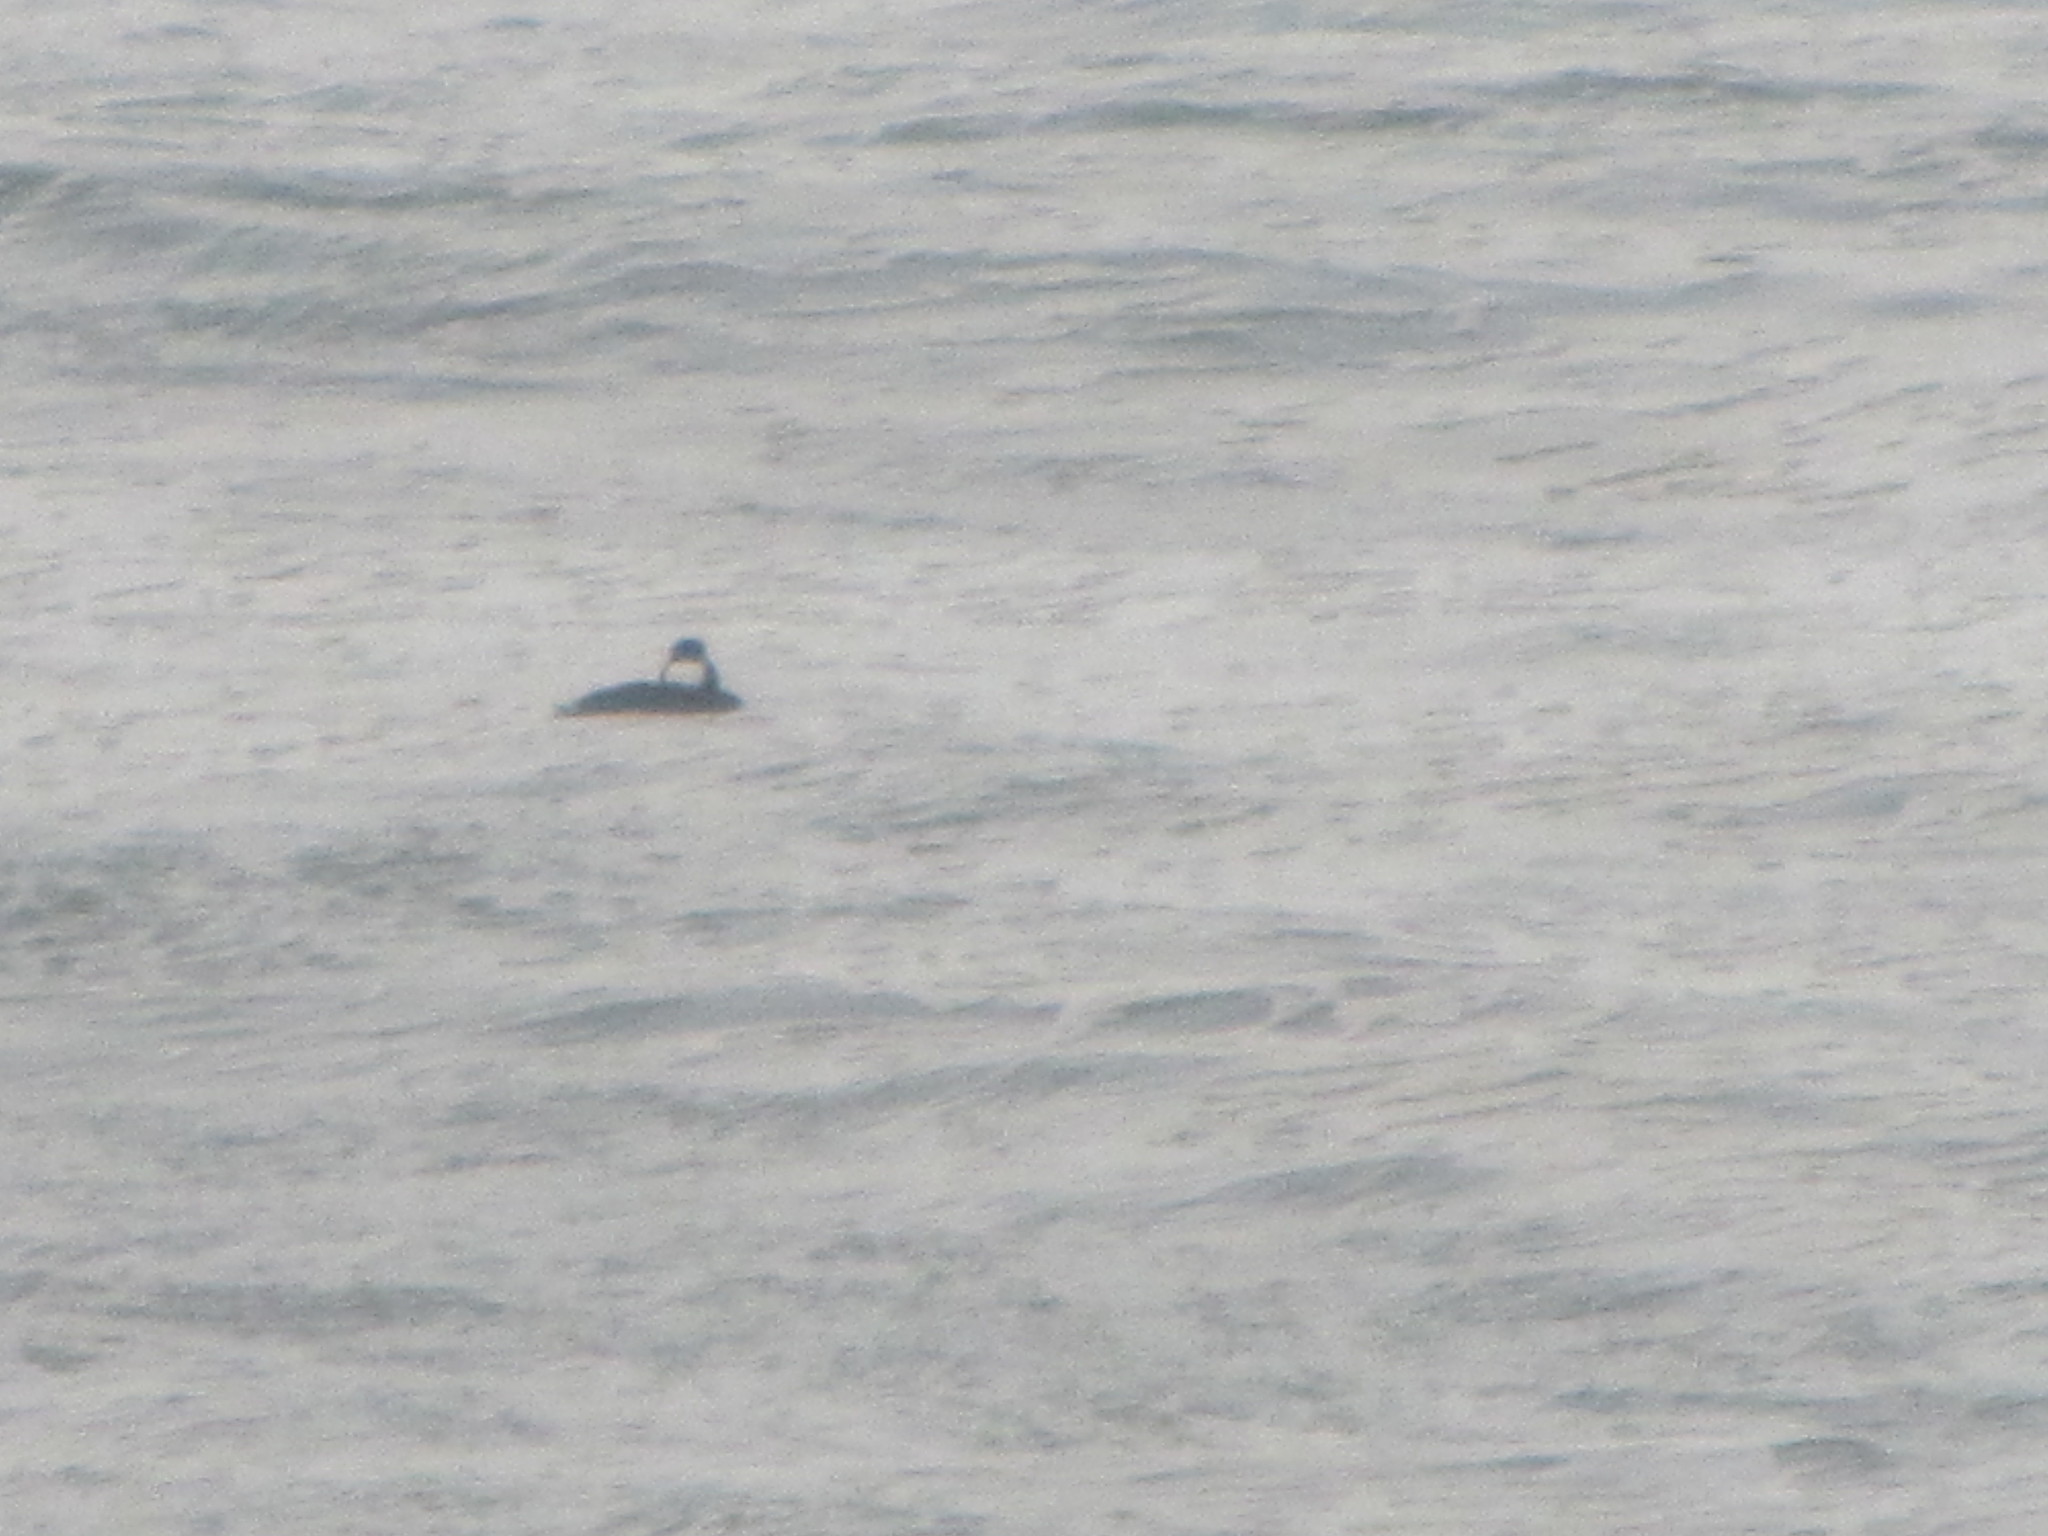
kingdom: Animalia
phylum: Chordata
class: Aves
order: Anseriformes
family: Anatidae
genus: Melanitta
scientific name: Melanitta perspicillata
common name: Surf scoter
